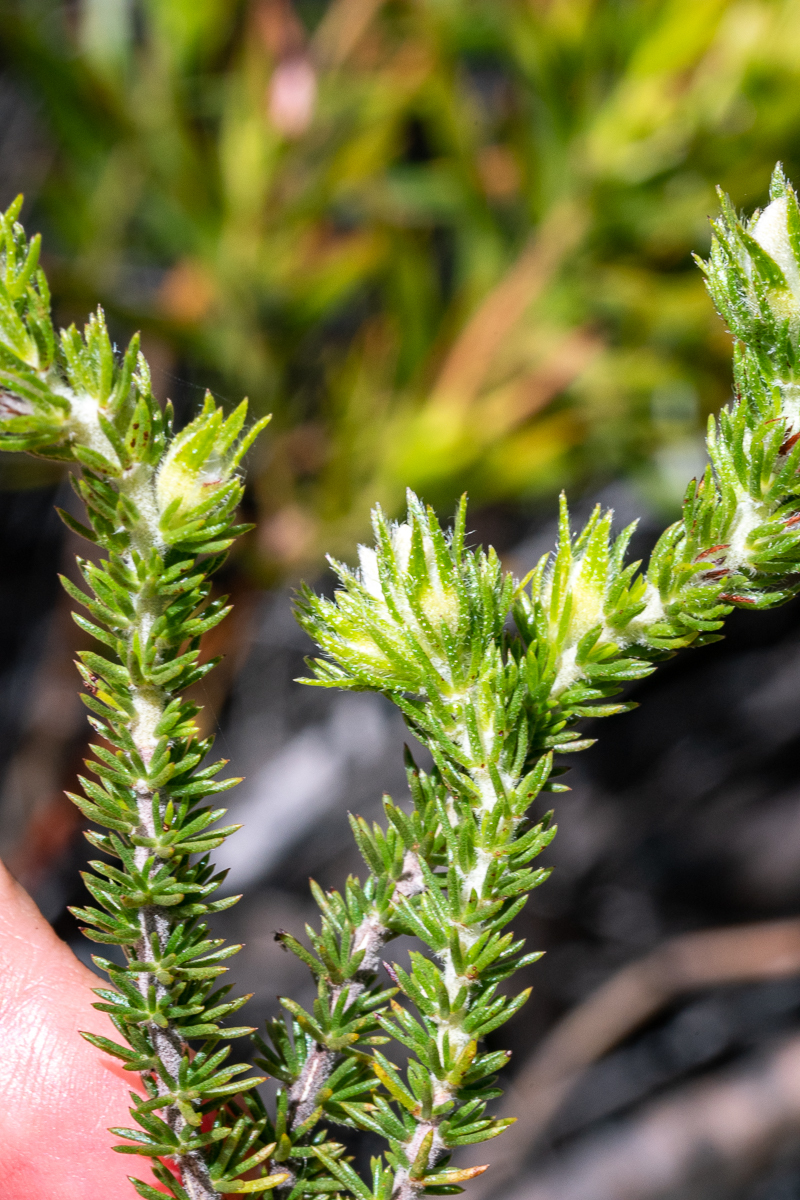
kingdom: Plantae
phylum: Tracheophyta
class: Magnoliopsida
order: Fabales
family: Fabaceae
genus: Aspalathus
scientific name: Aspalathus ciliaris
